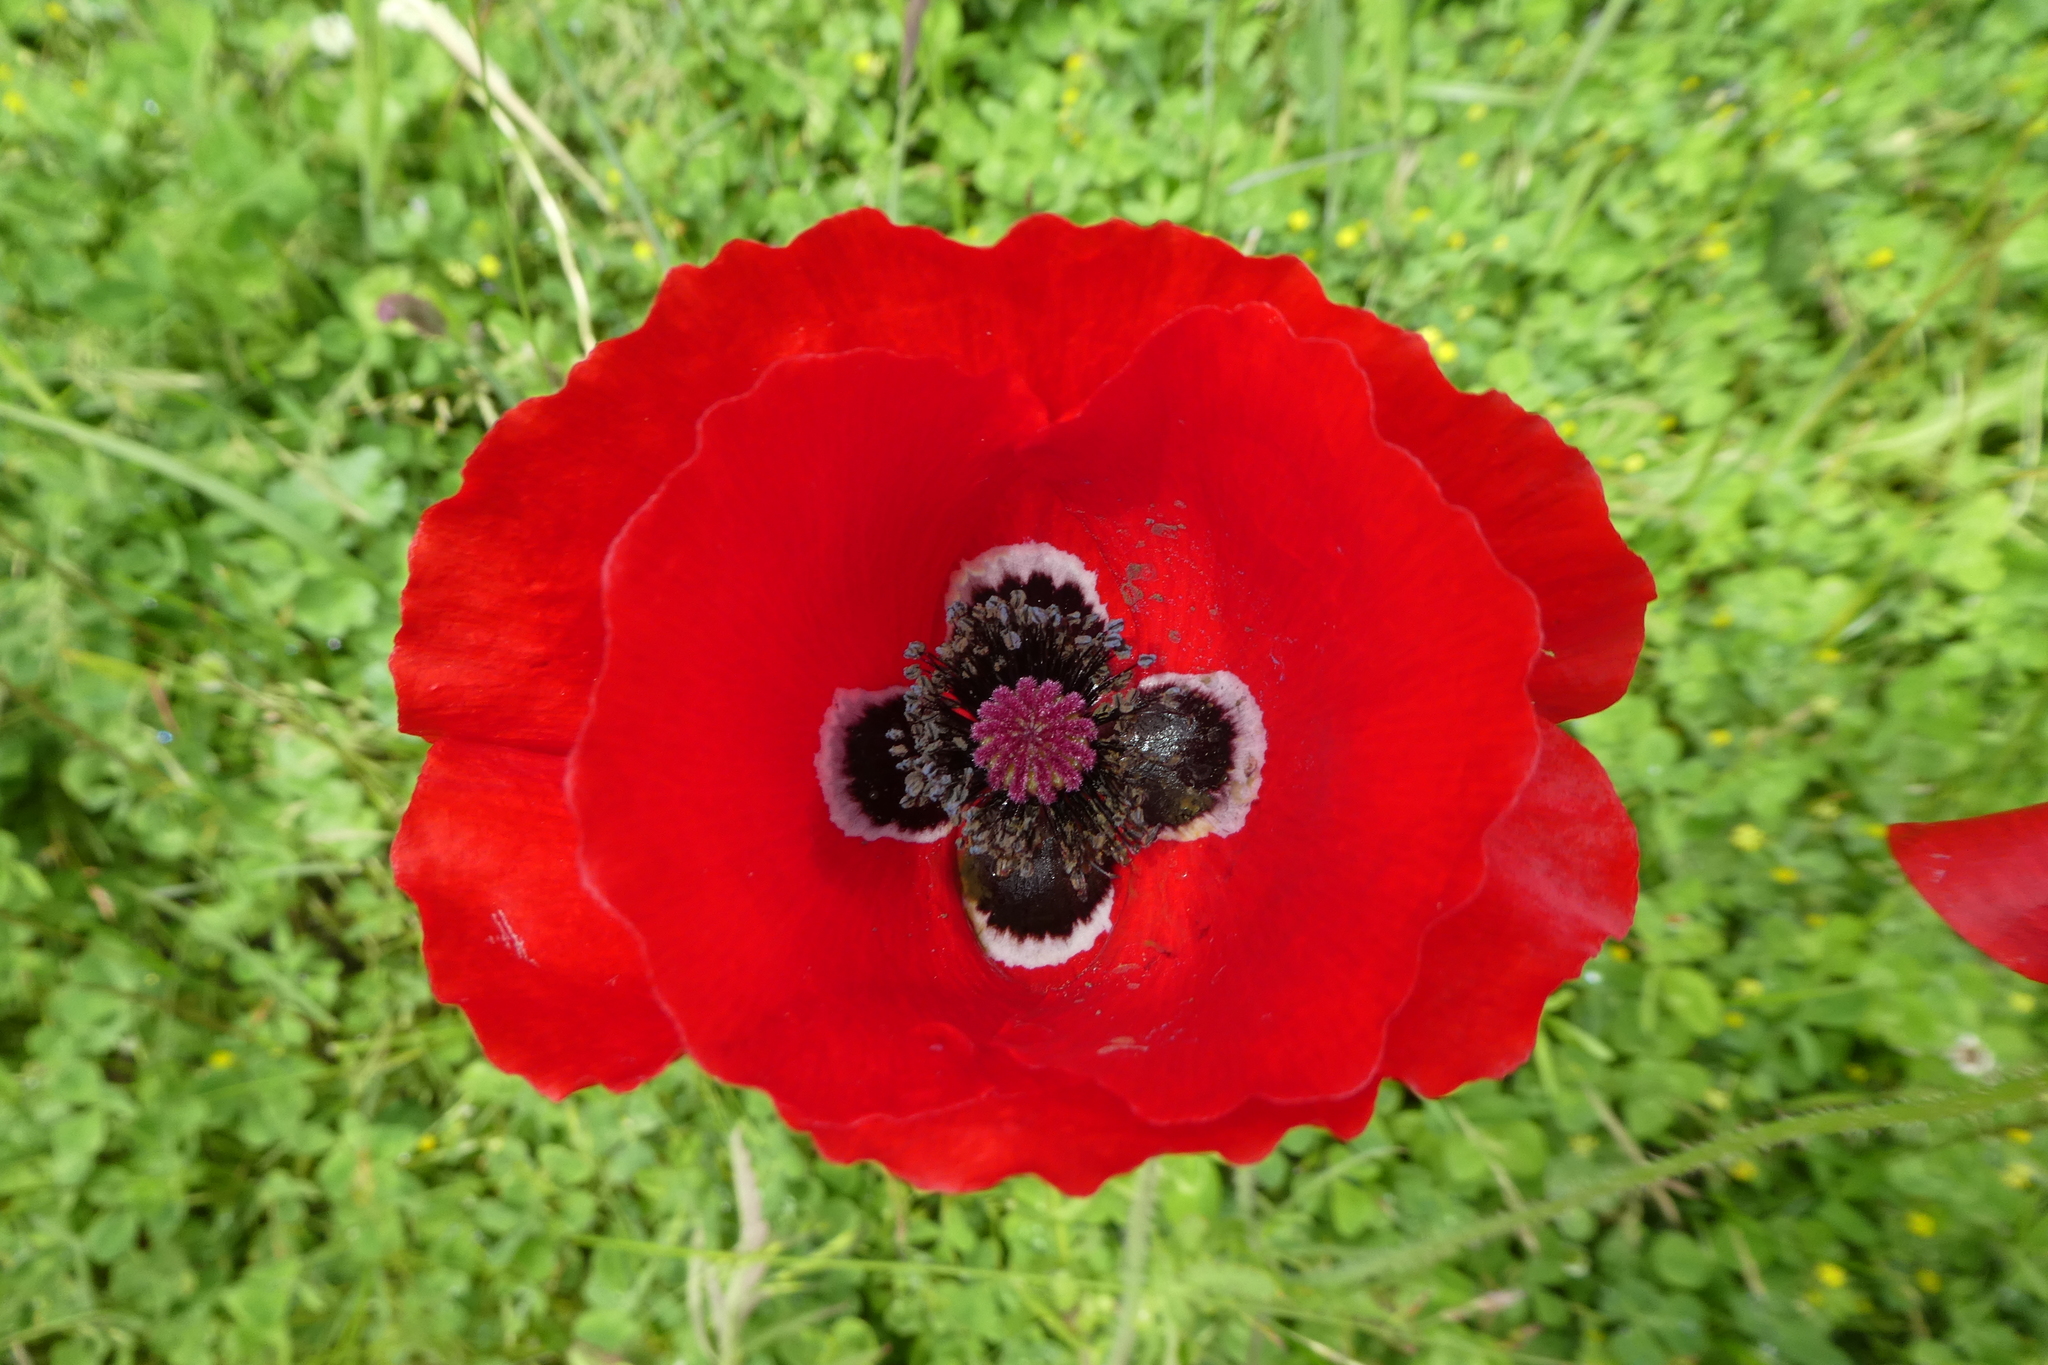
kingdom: Plantae
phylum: Tracheophyta
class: Magnoliopsida
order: Ranunculales
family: Papaveraceae
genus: Papaver
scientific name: Papaver rhoeas
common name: Corn poppy
